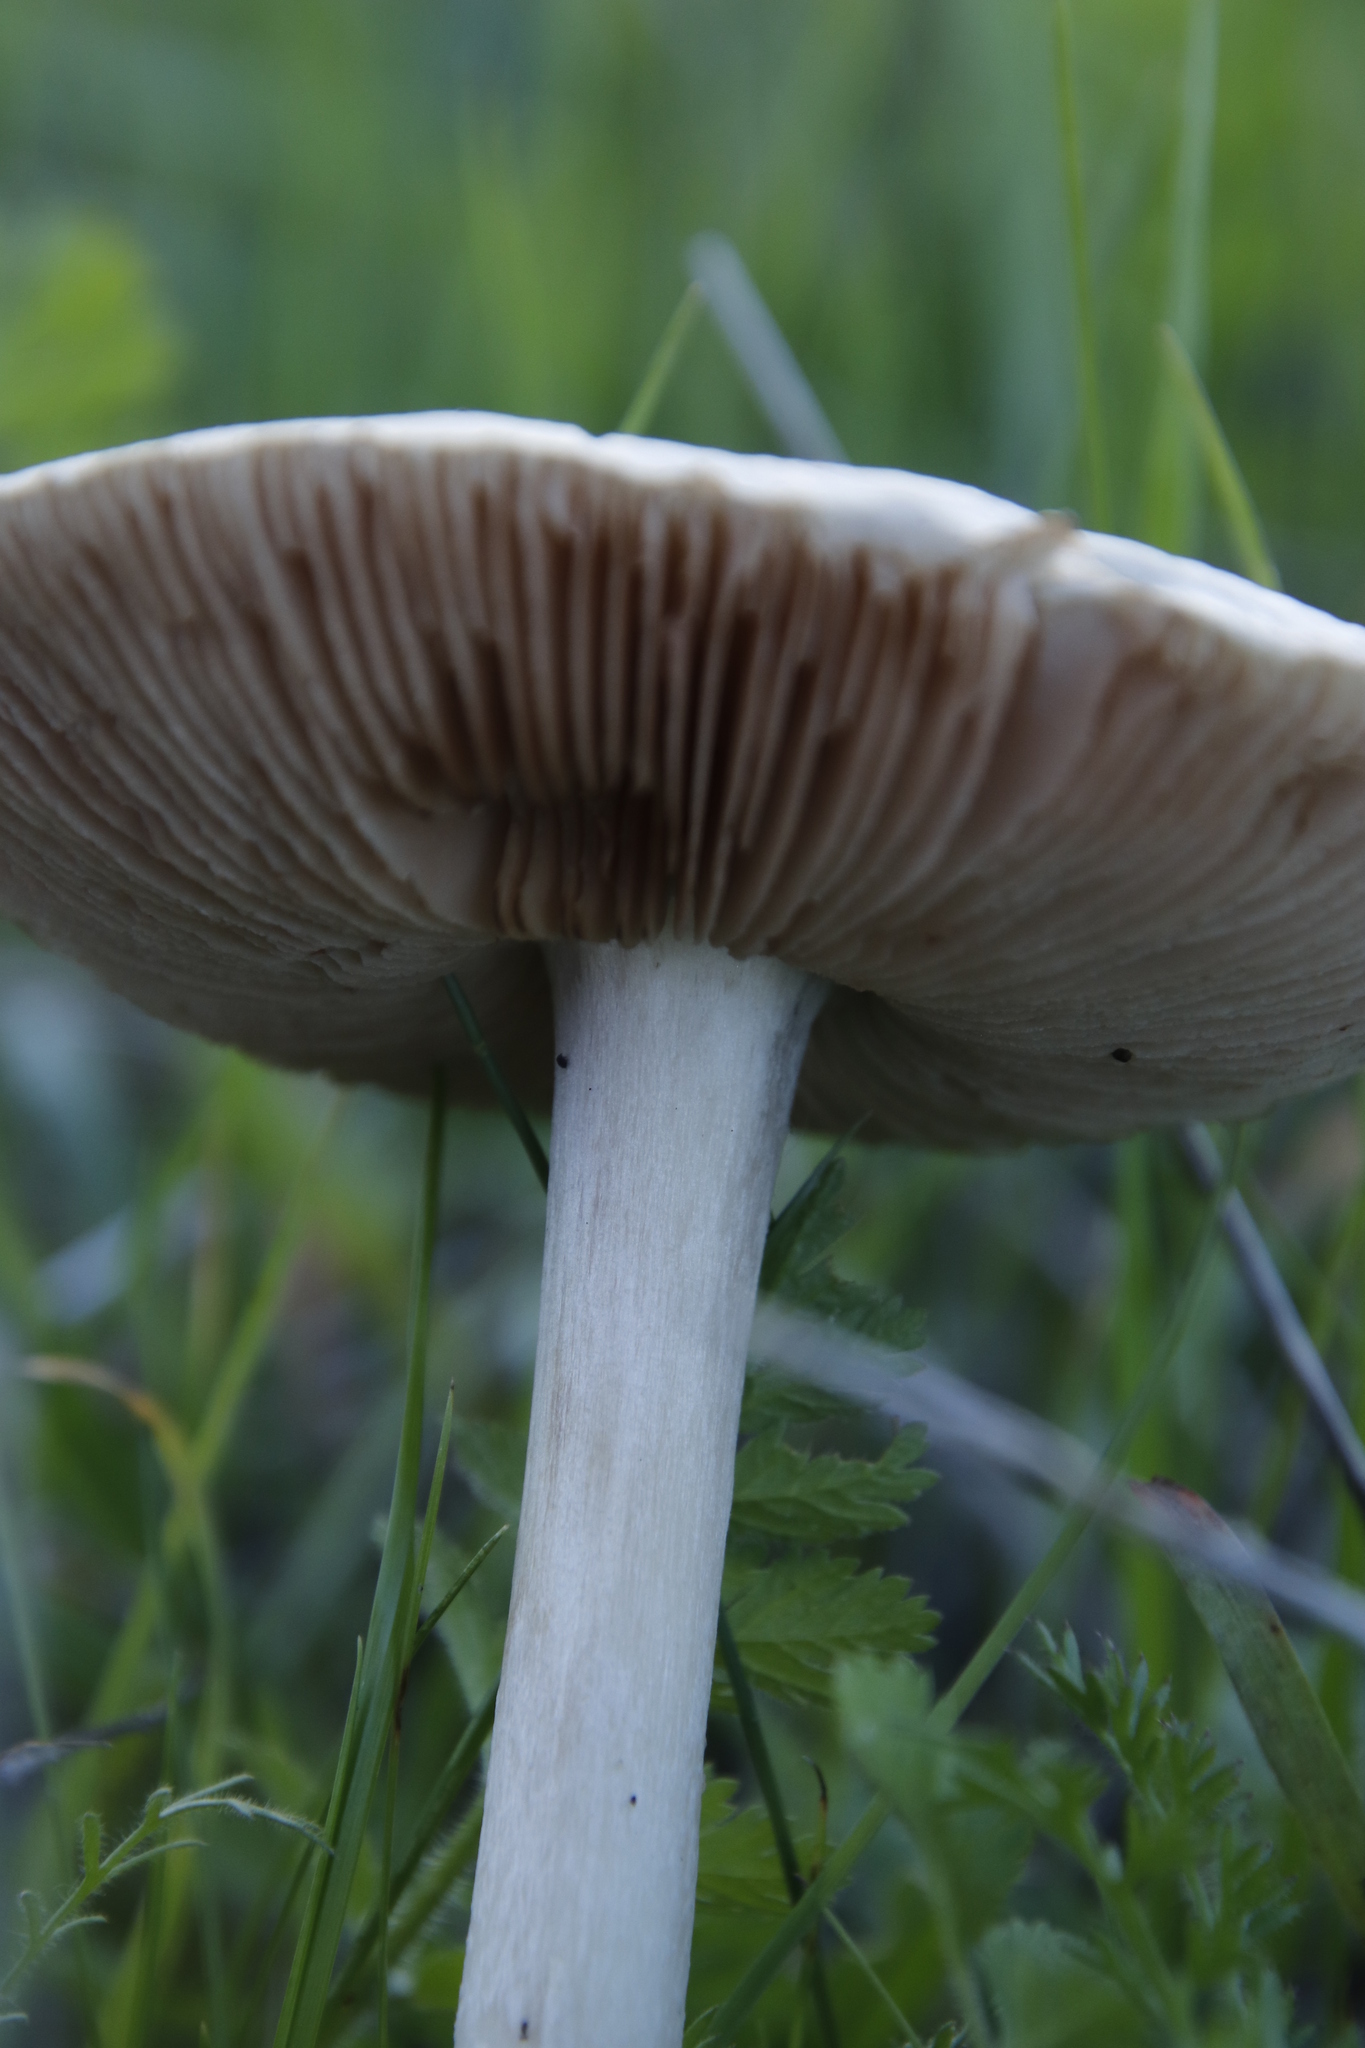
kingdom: Fungi
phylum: Basidiomycota
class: Agaricomycetes
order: Agaricales
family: Pluteaceae
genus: Volvopluteus
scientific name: Volvopluteus gloiocephalus
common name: Stubble rosegill
